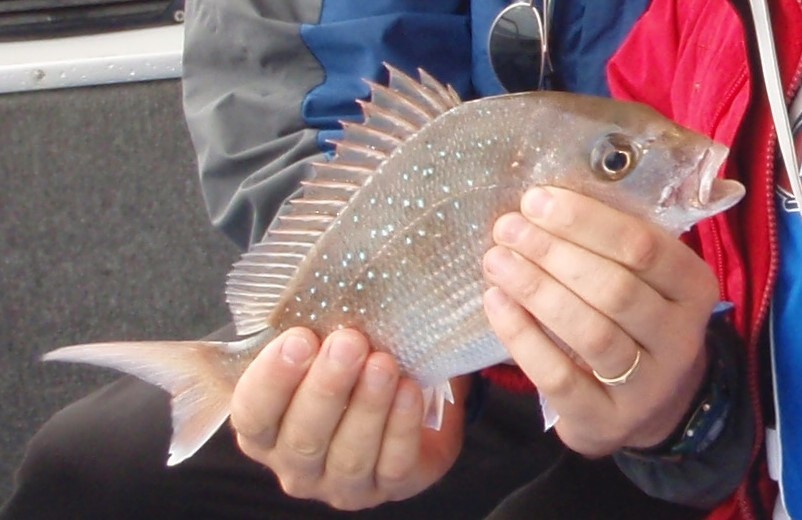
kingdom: Animalia
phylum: Chordata
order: Perciformes
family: Sparidae
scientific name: Sparidae
